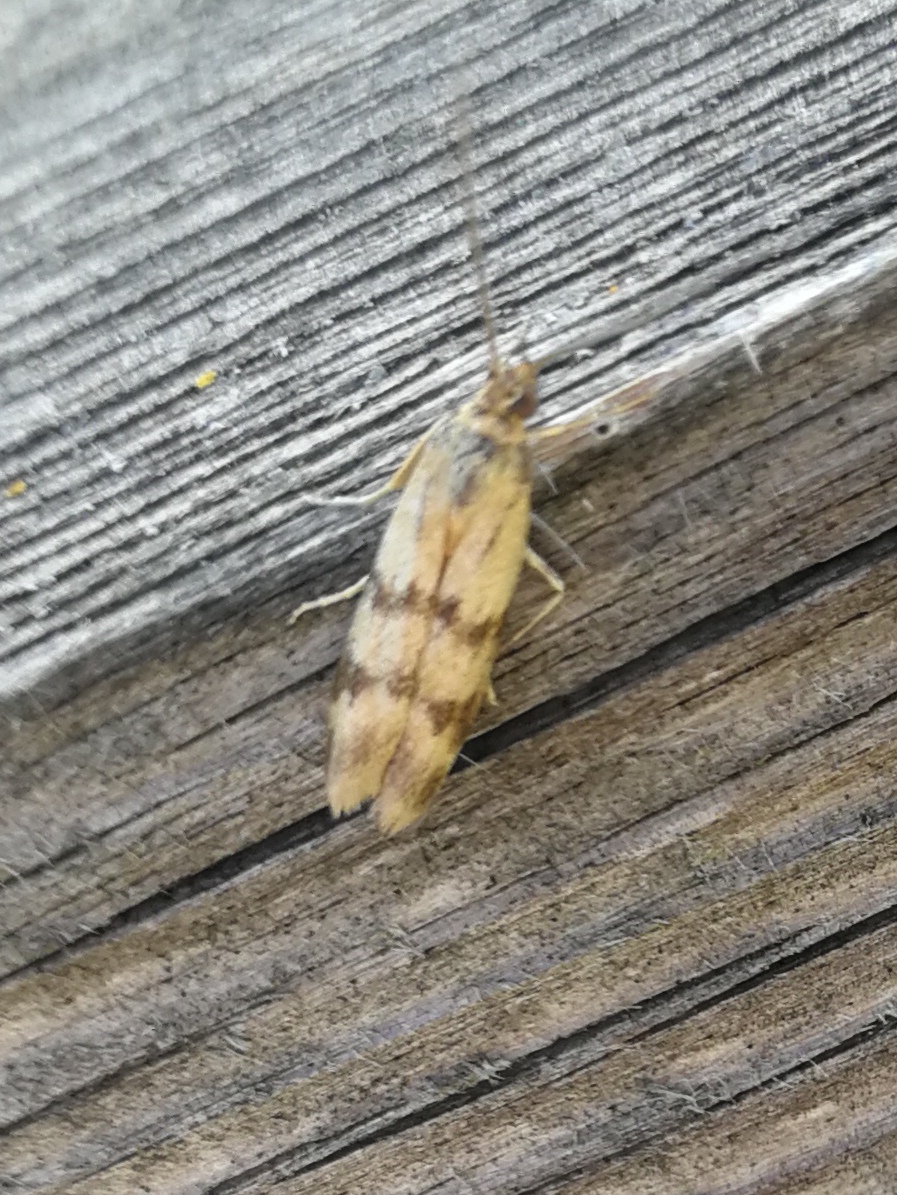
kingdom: Animalia
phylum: Arthropoda
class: Insecta
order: Lepidoptera
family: Pyralidae
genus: Homoeosoma
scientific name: Homoeosoma sinuella
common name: Twin-barred knot-horn
